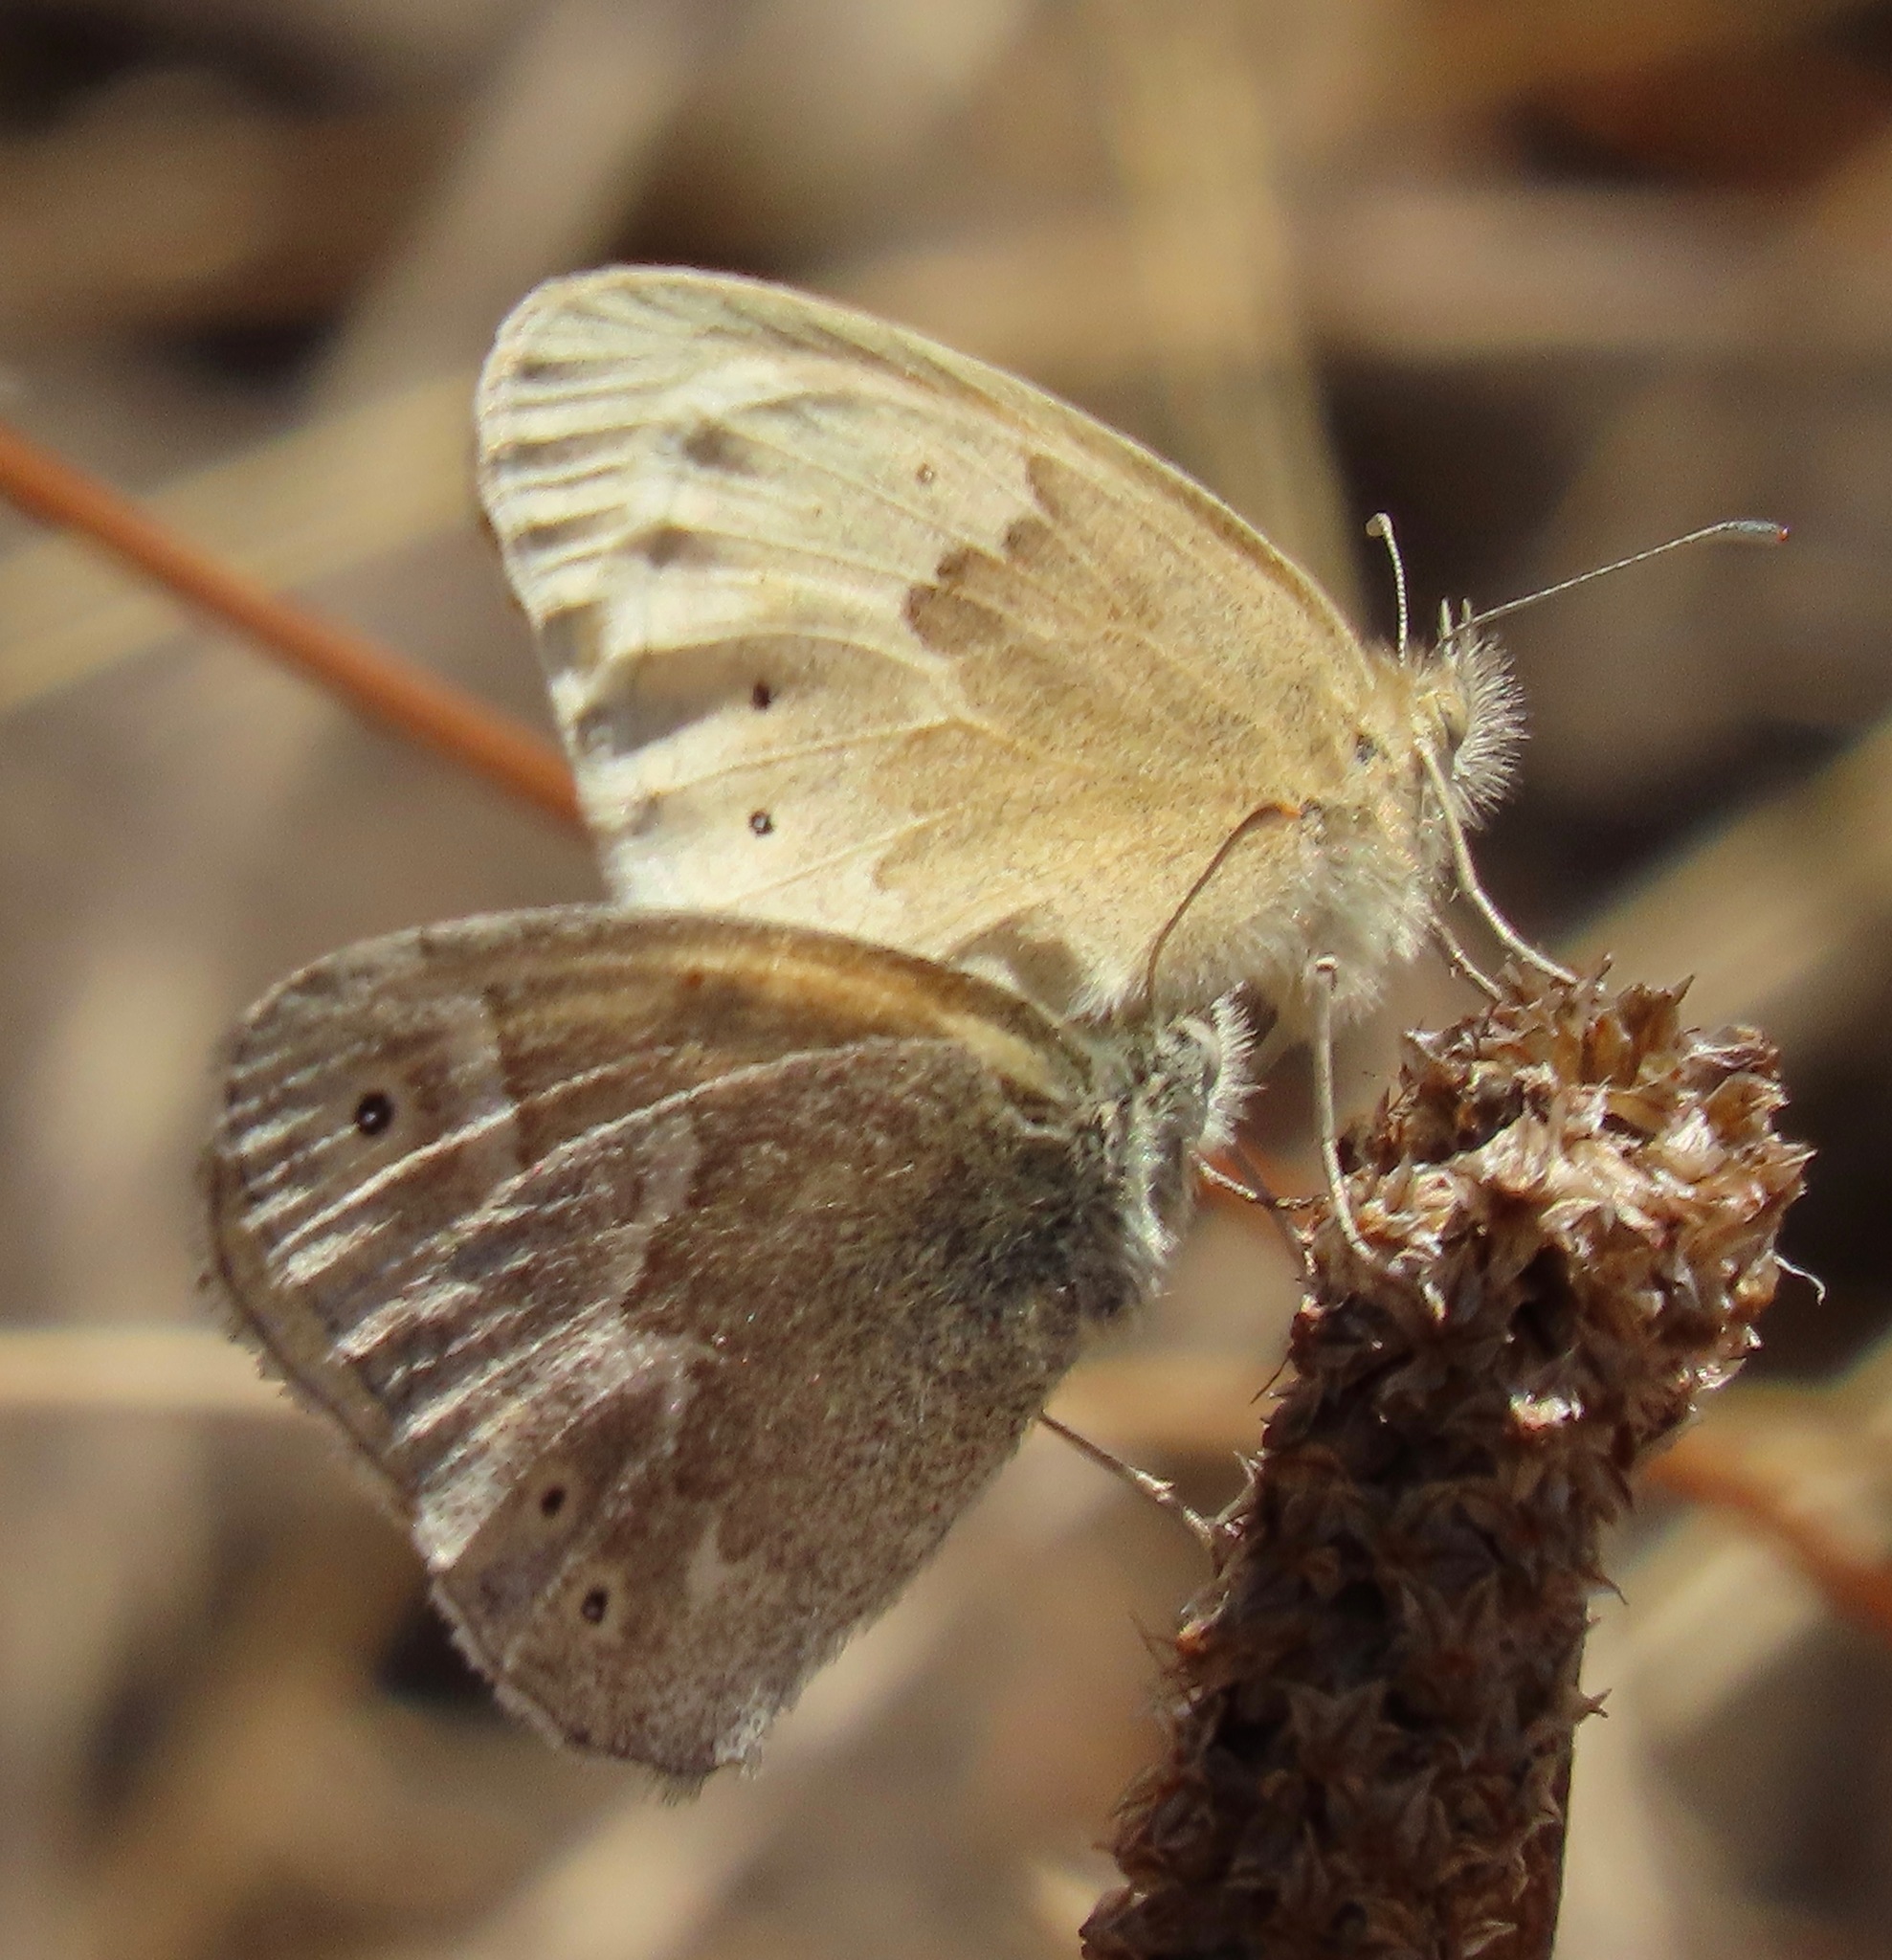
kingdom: Animalia
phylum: Arthropoda
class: Insecta
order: Lepidoptera
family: Nymphalidae
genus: Coenonympha
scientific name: Coenonympha california
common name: Common ringlet
